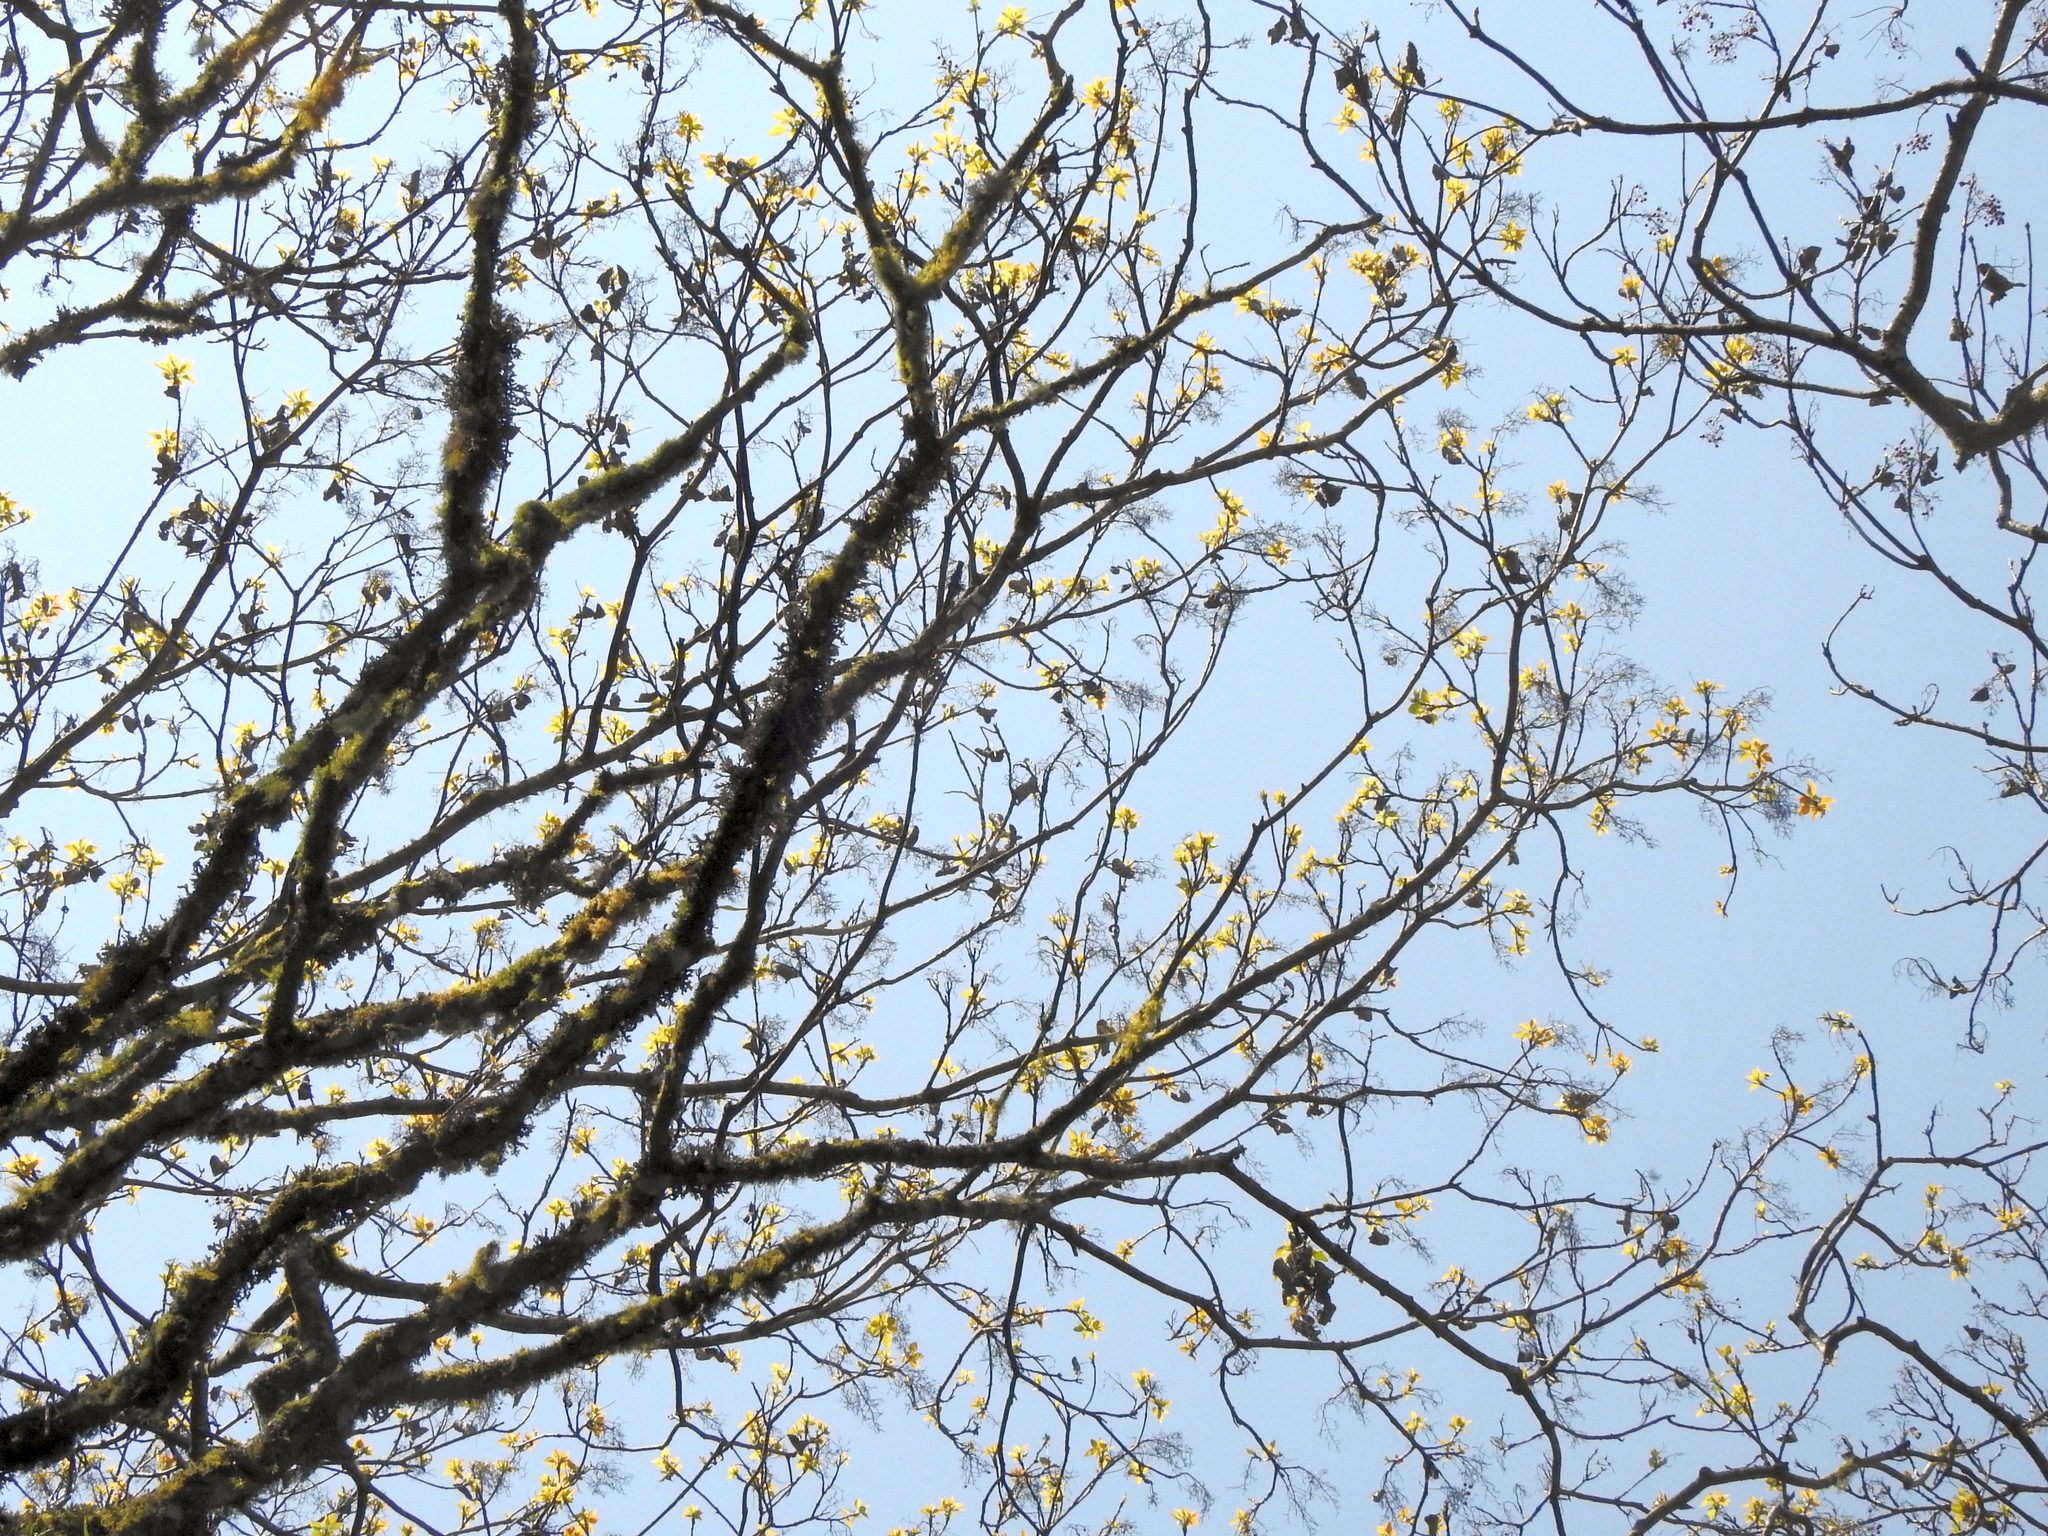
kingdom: Plantae
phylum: Tracheophyta
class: Magnoliopsida
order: Malpighiales
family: Salicaceae
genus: Idesia
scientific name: Idesia polycarpa
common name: Idesia tree
